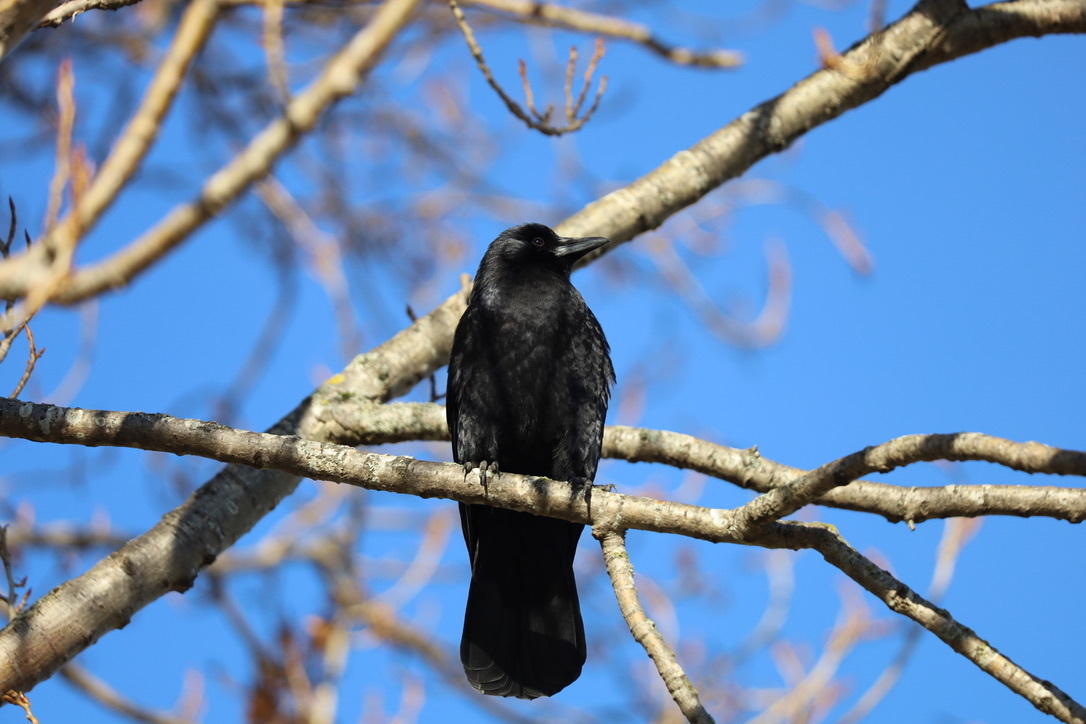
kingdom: Animalia
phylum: Chordata
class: Aves
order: Passeriformes
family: Corvidae
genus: Corvus
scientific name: Corvus brachyrhynchos
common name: American crow
